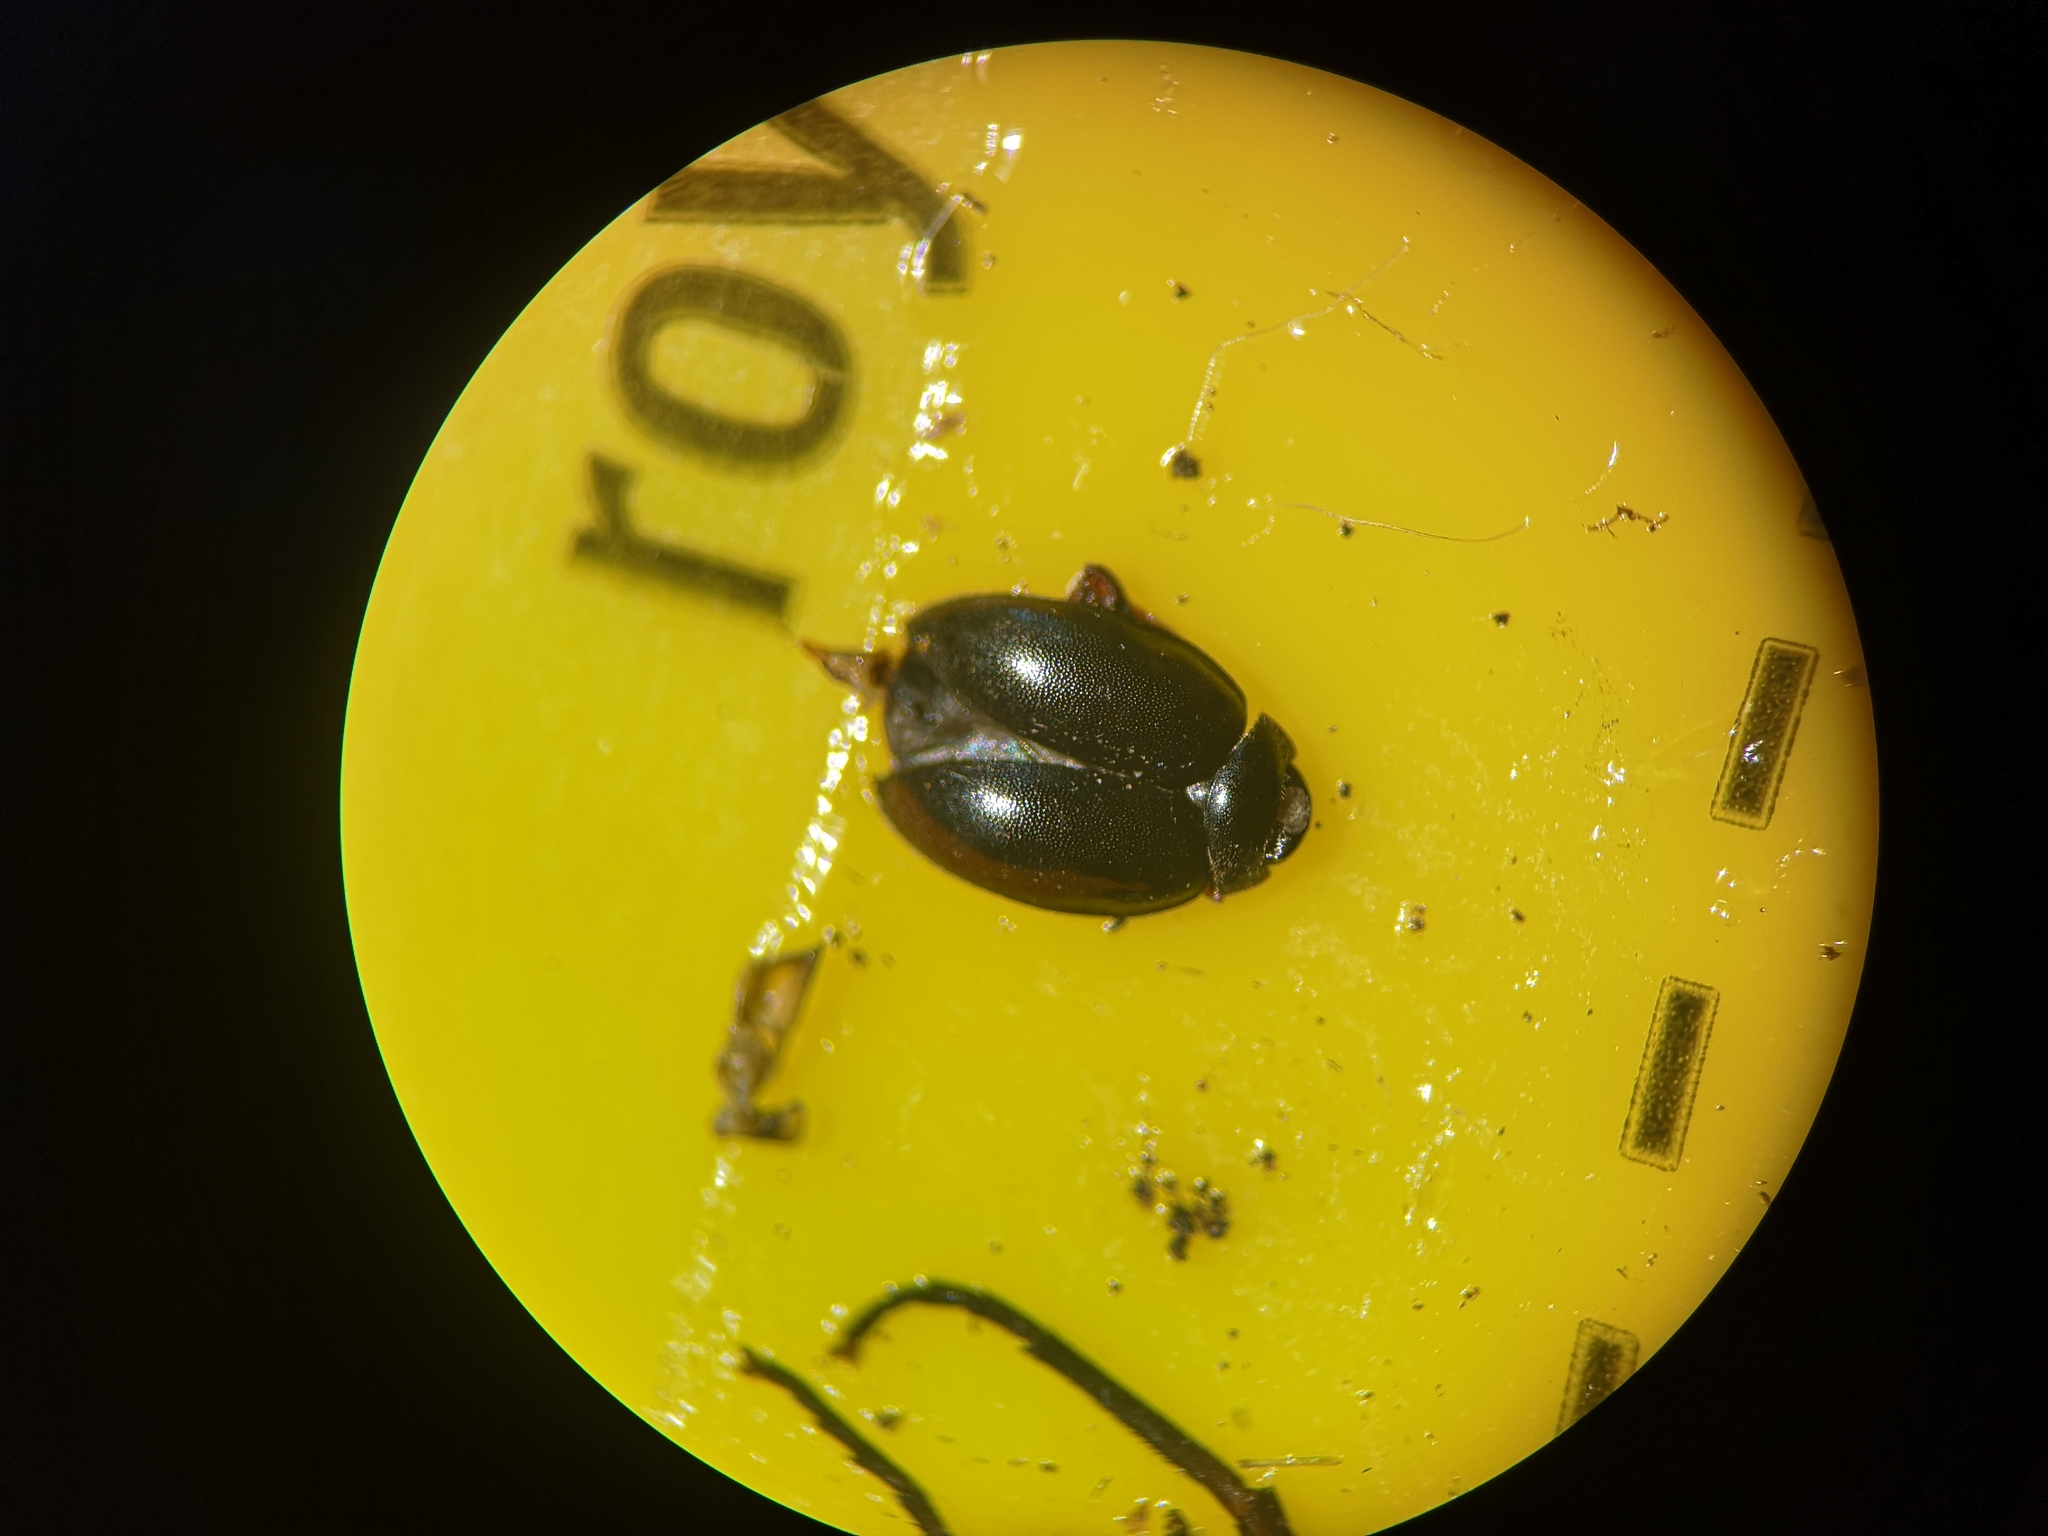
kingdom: Animalia
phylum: Arthropoda
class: Insecta
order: Coleoptera
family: Scirtidae
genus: Scirtes
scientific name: Scirtes hemisphaericus
